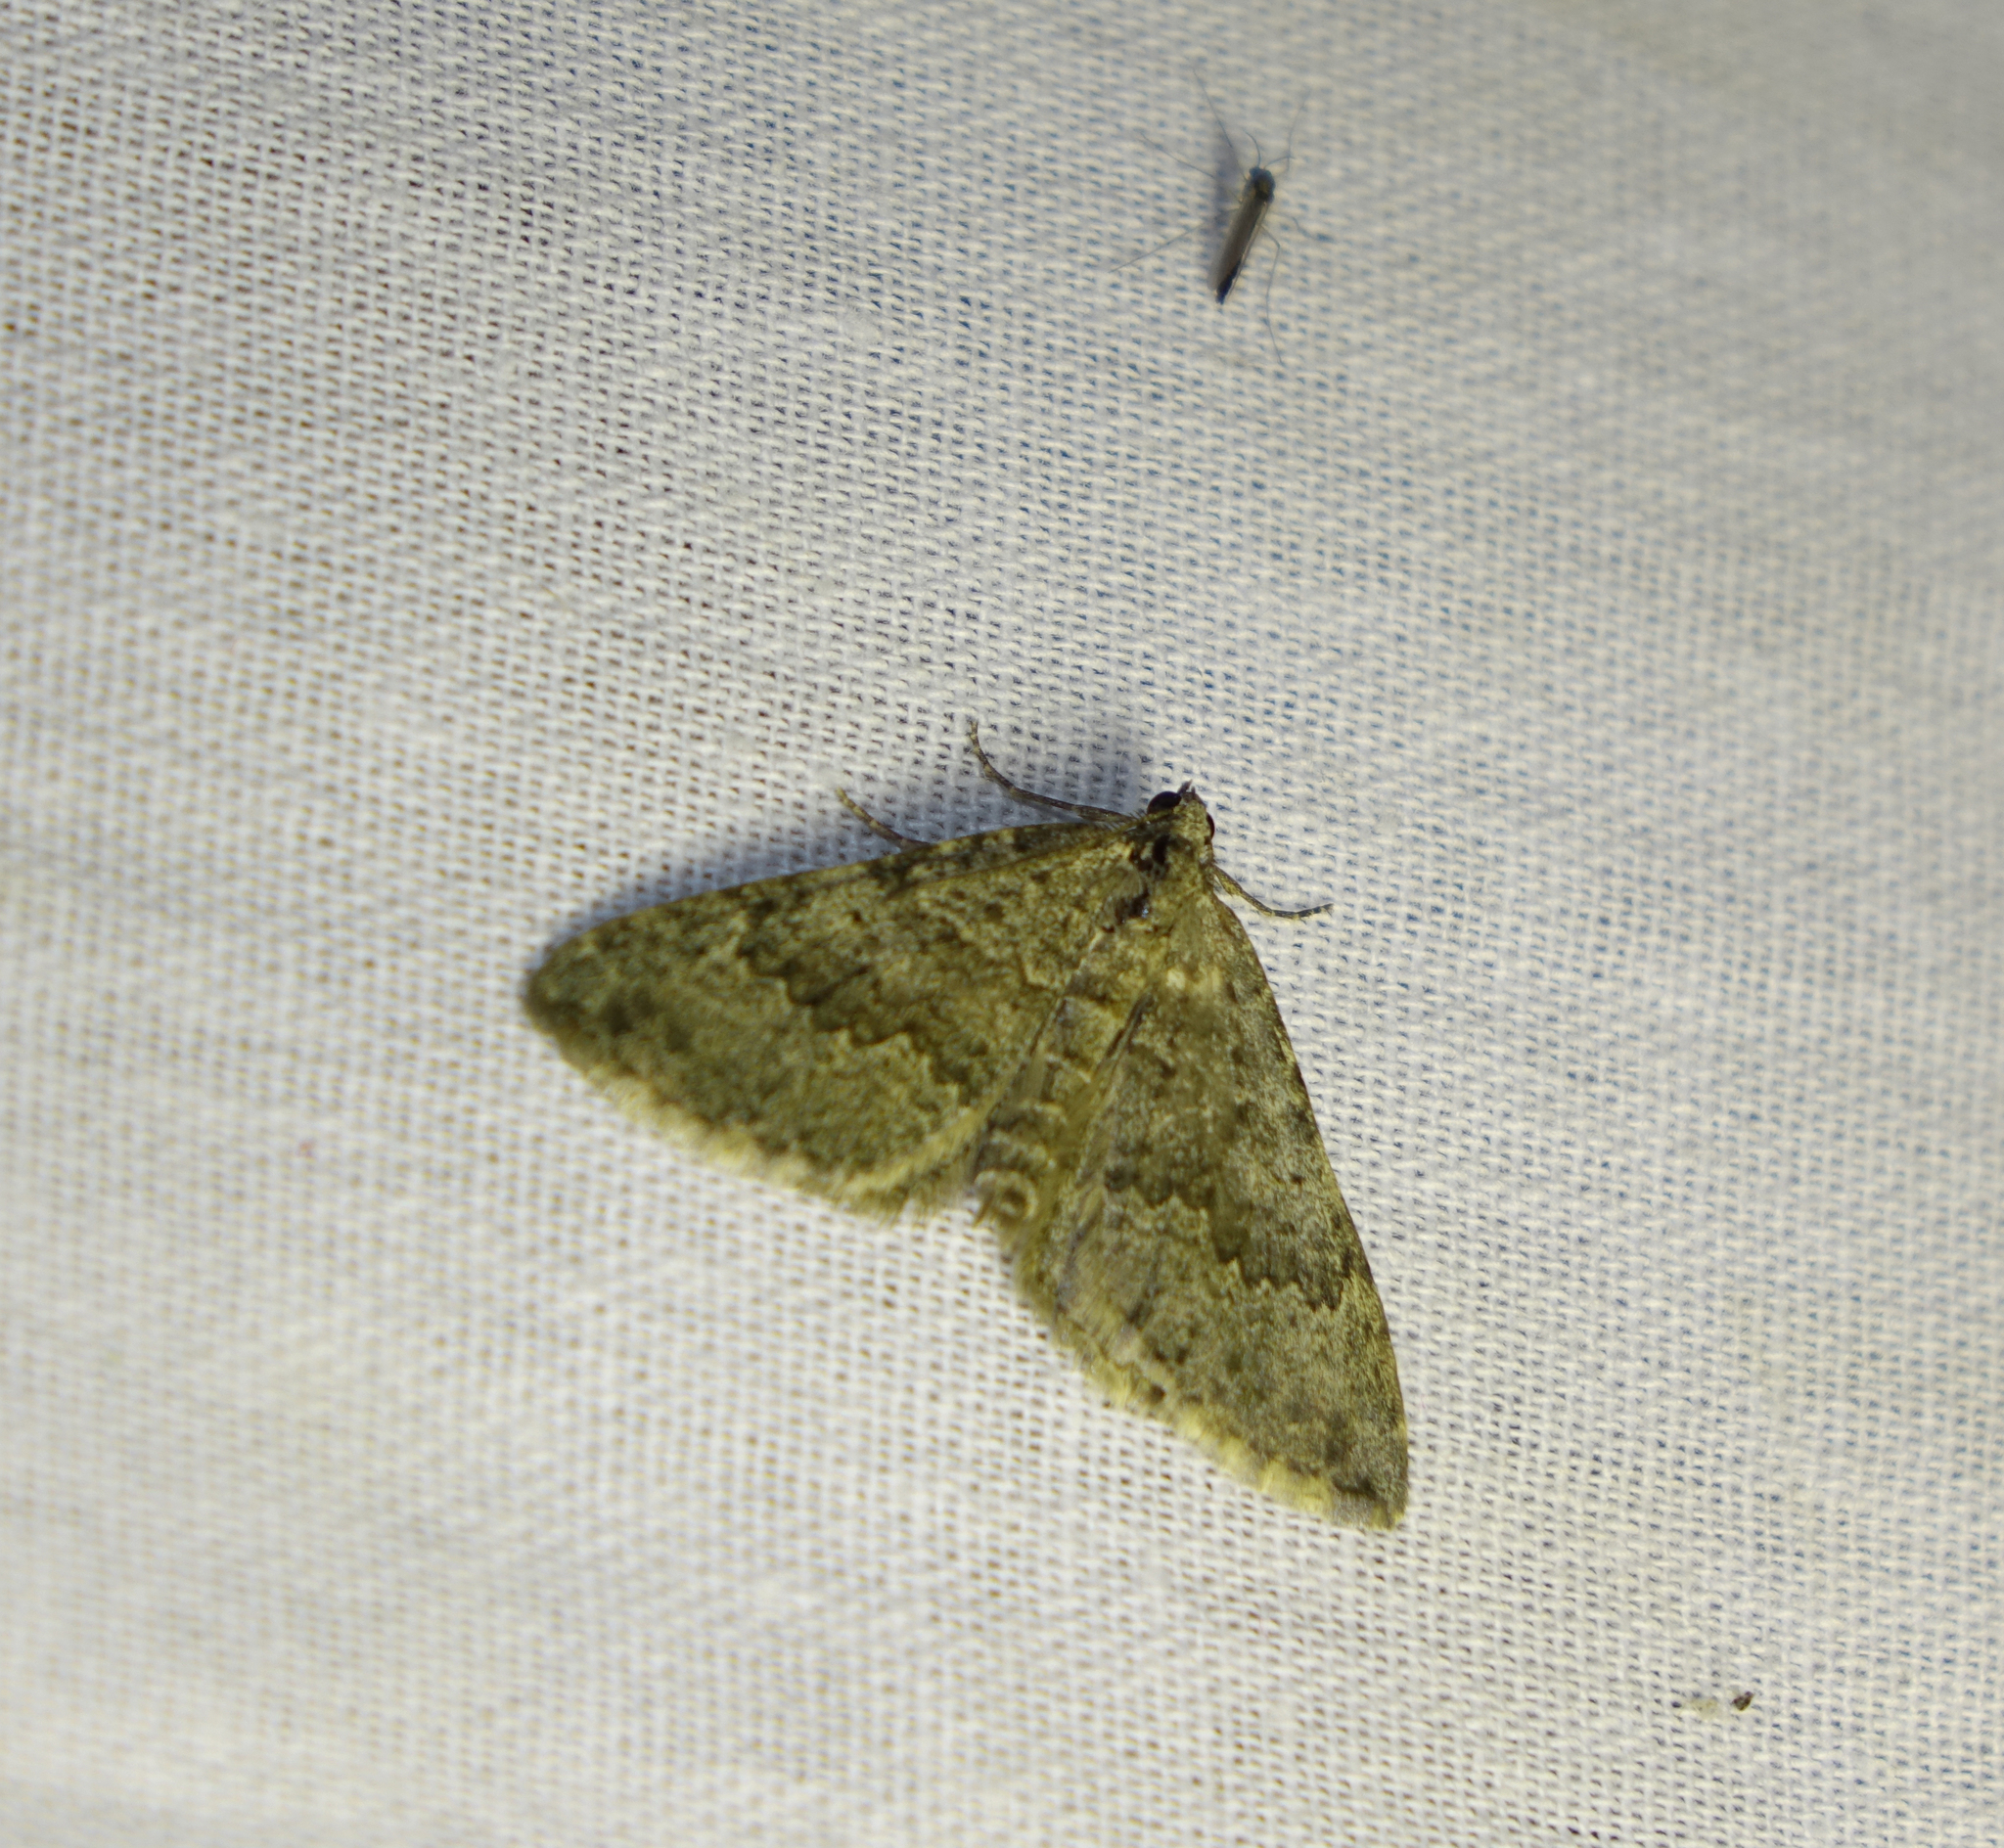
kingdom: Animalia
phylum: Arthropoda
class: Insecta
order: Lepidoptera
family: Geometridae
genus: Scotopteryx
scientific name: Scotopteryx
